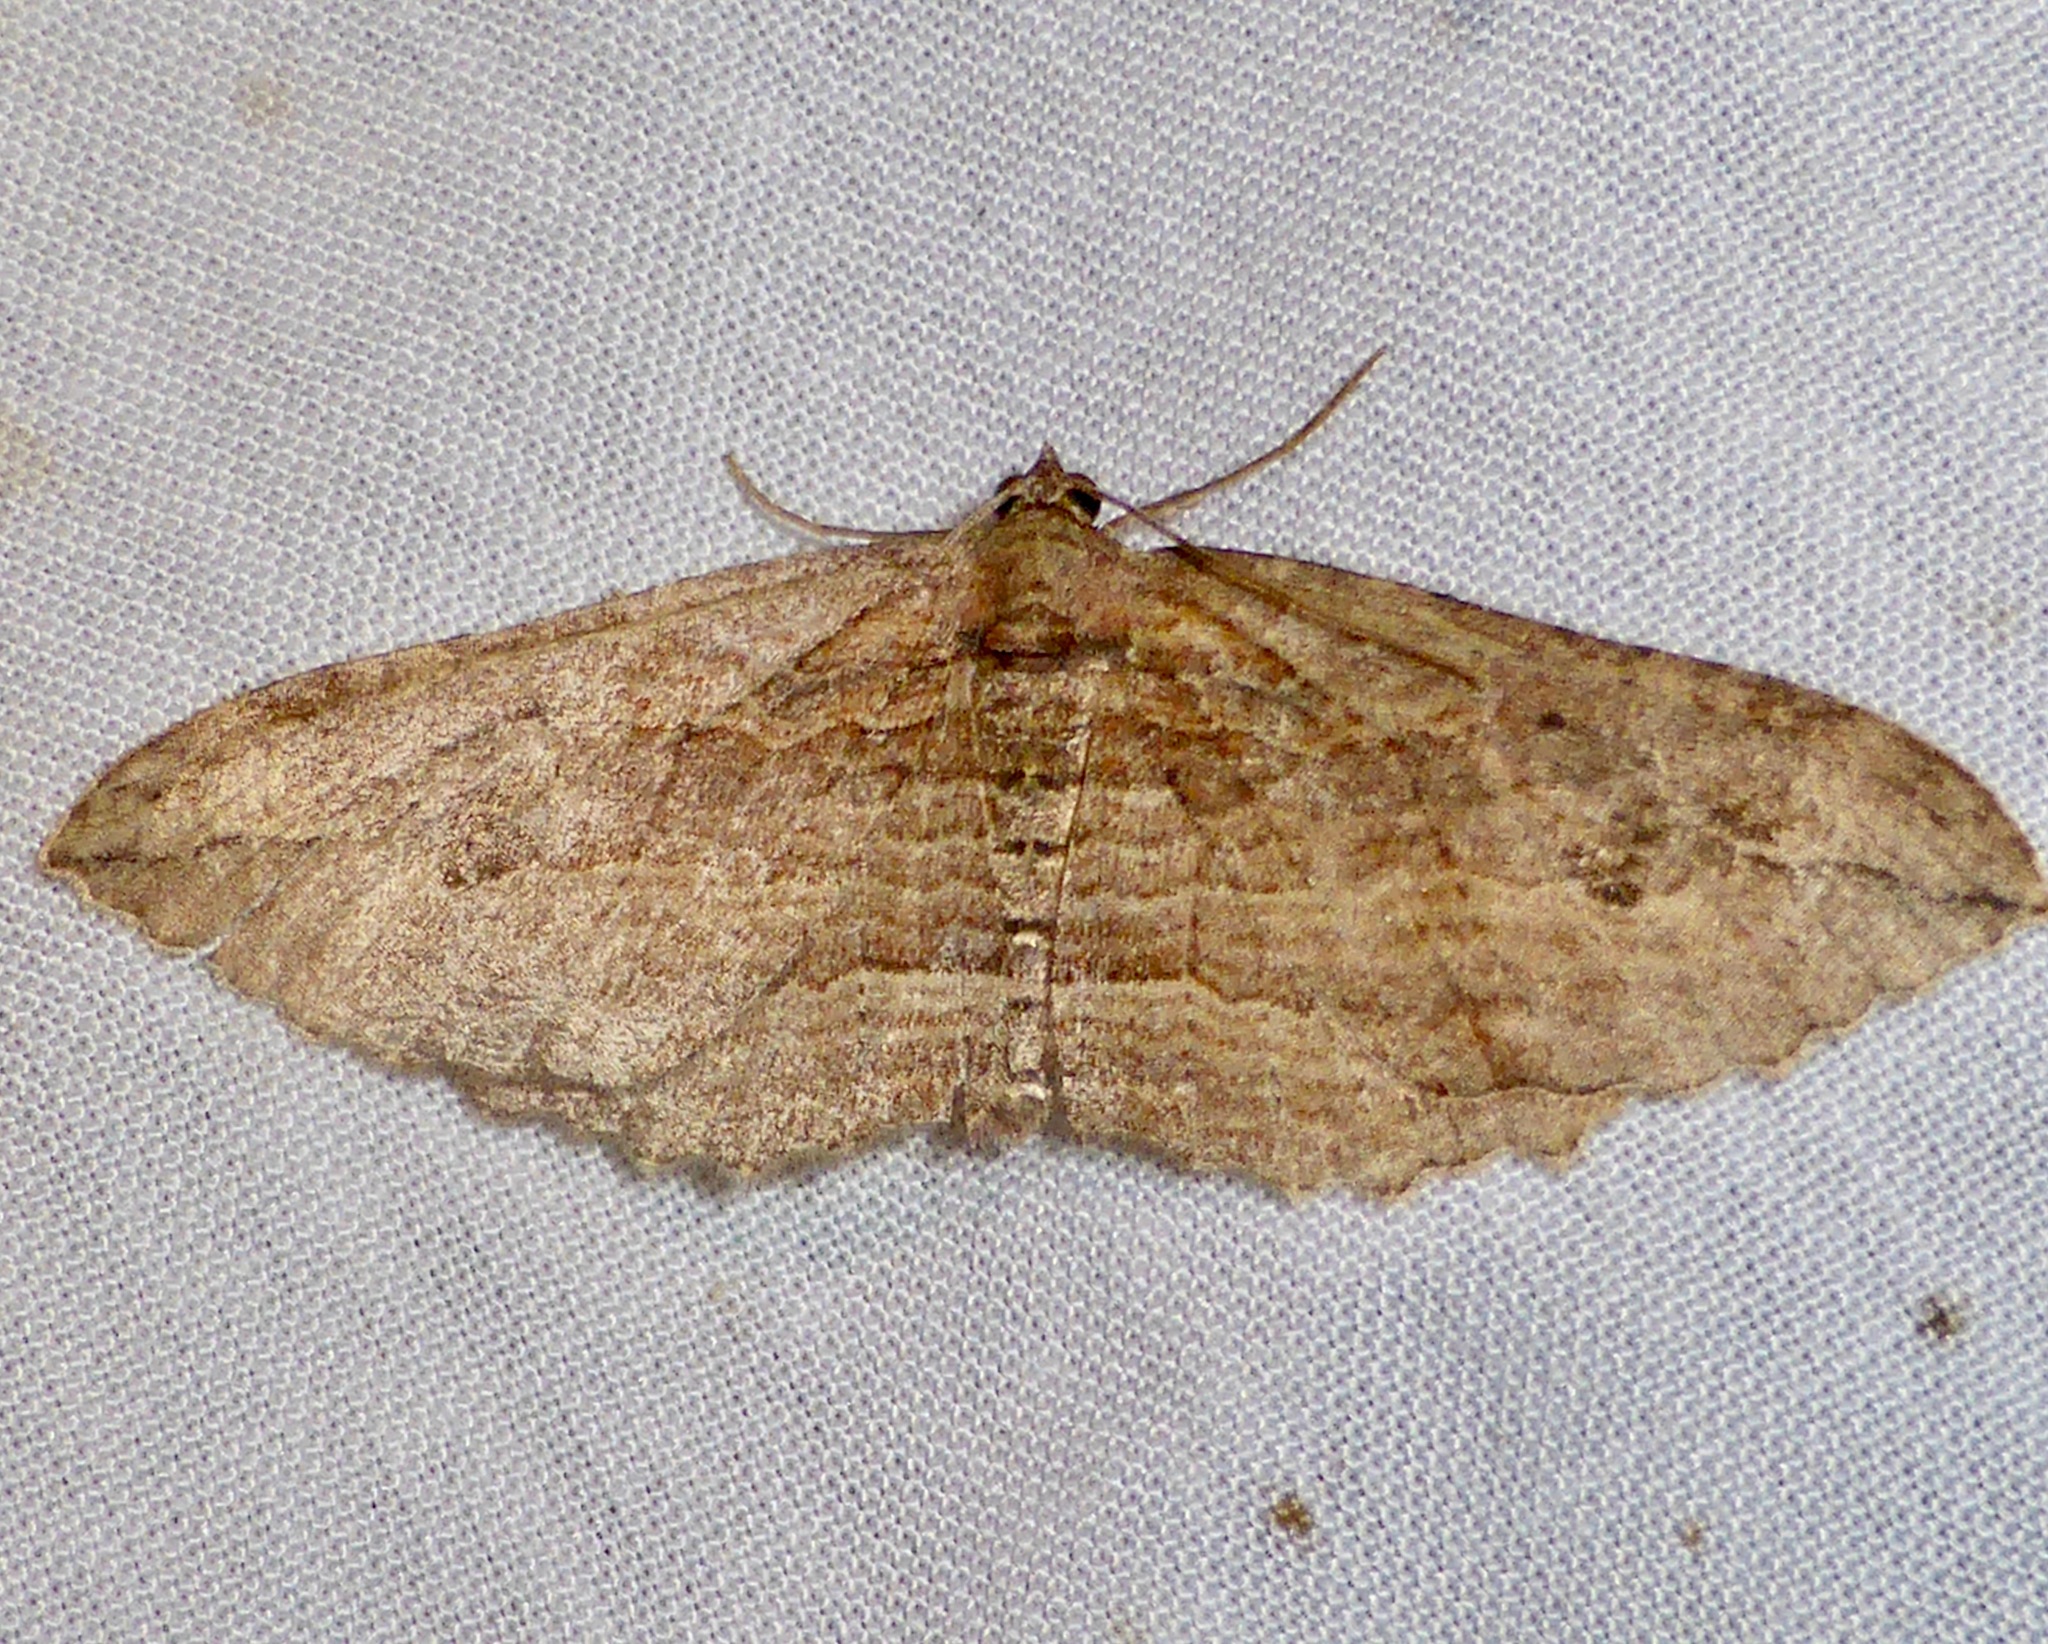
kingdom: Animalia
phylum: Arthropoda
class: Insecta
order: Lepidoptera
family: Geometridae
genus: Austrocidaria
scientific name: Austrocidaria bipartita
